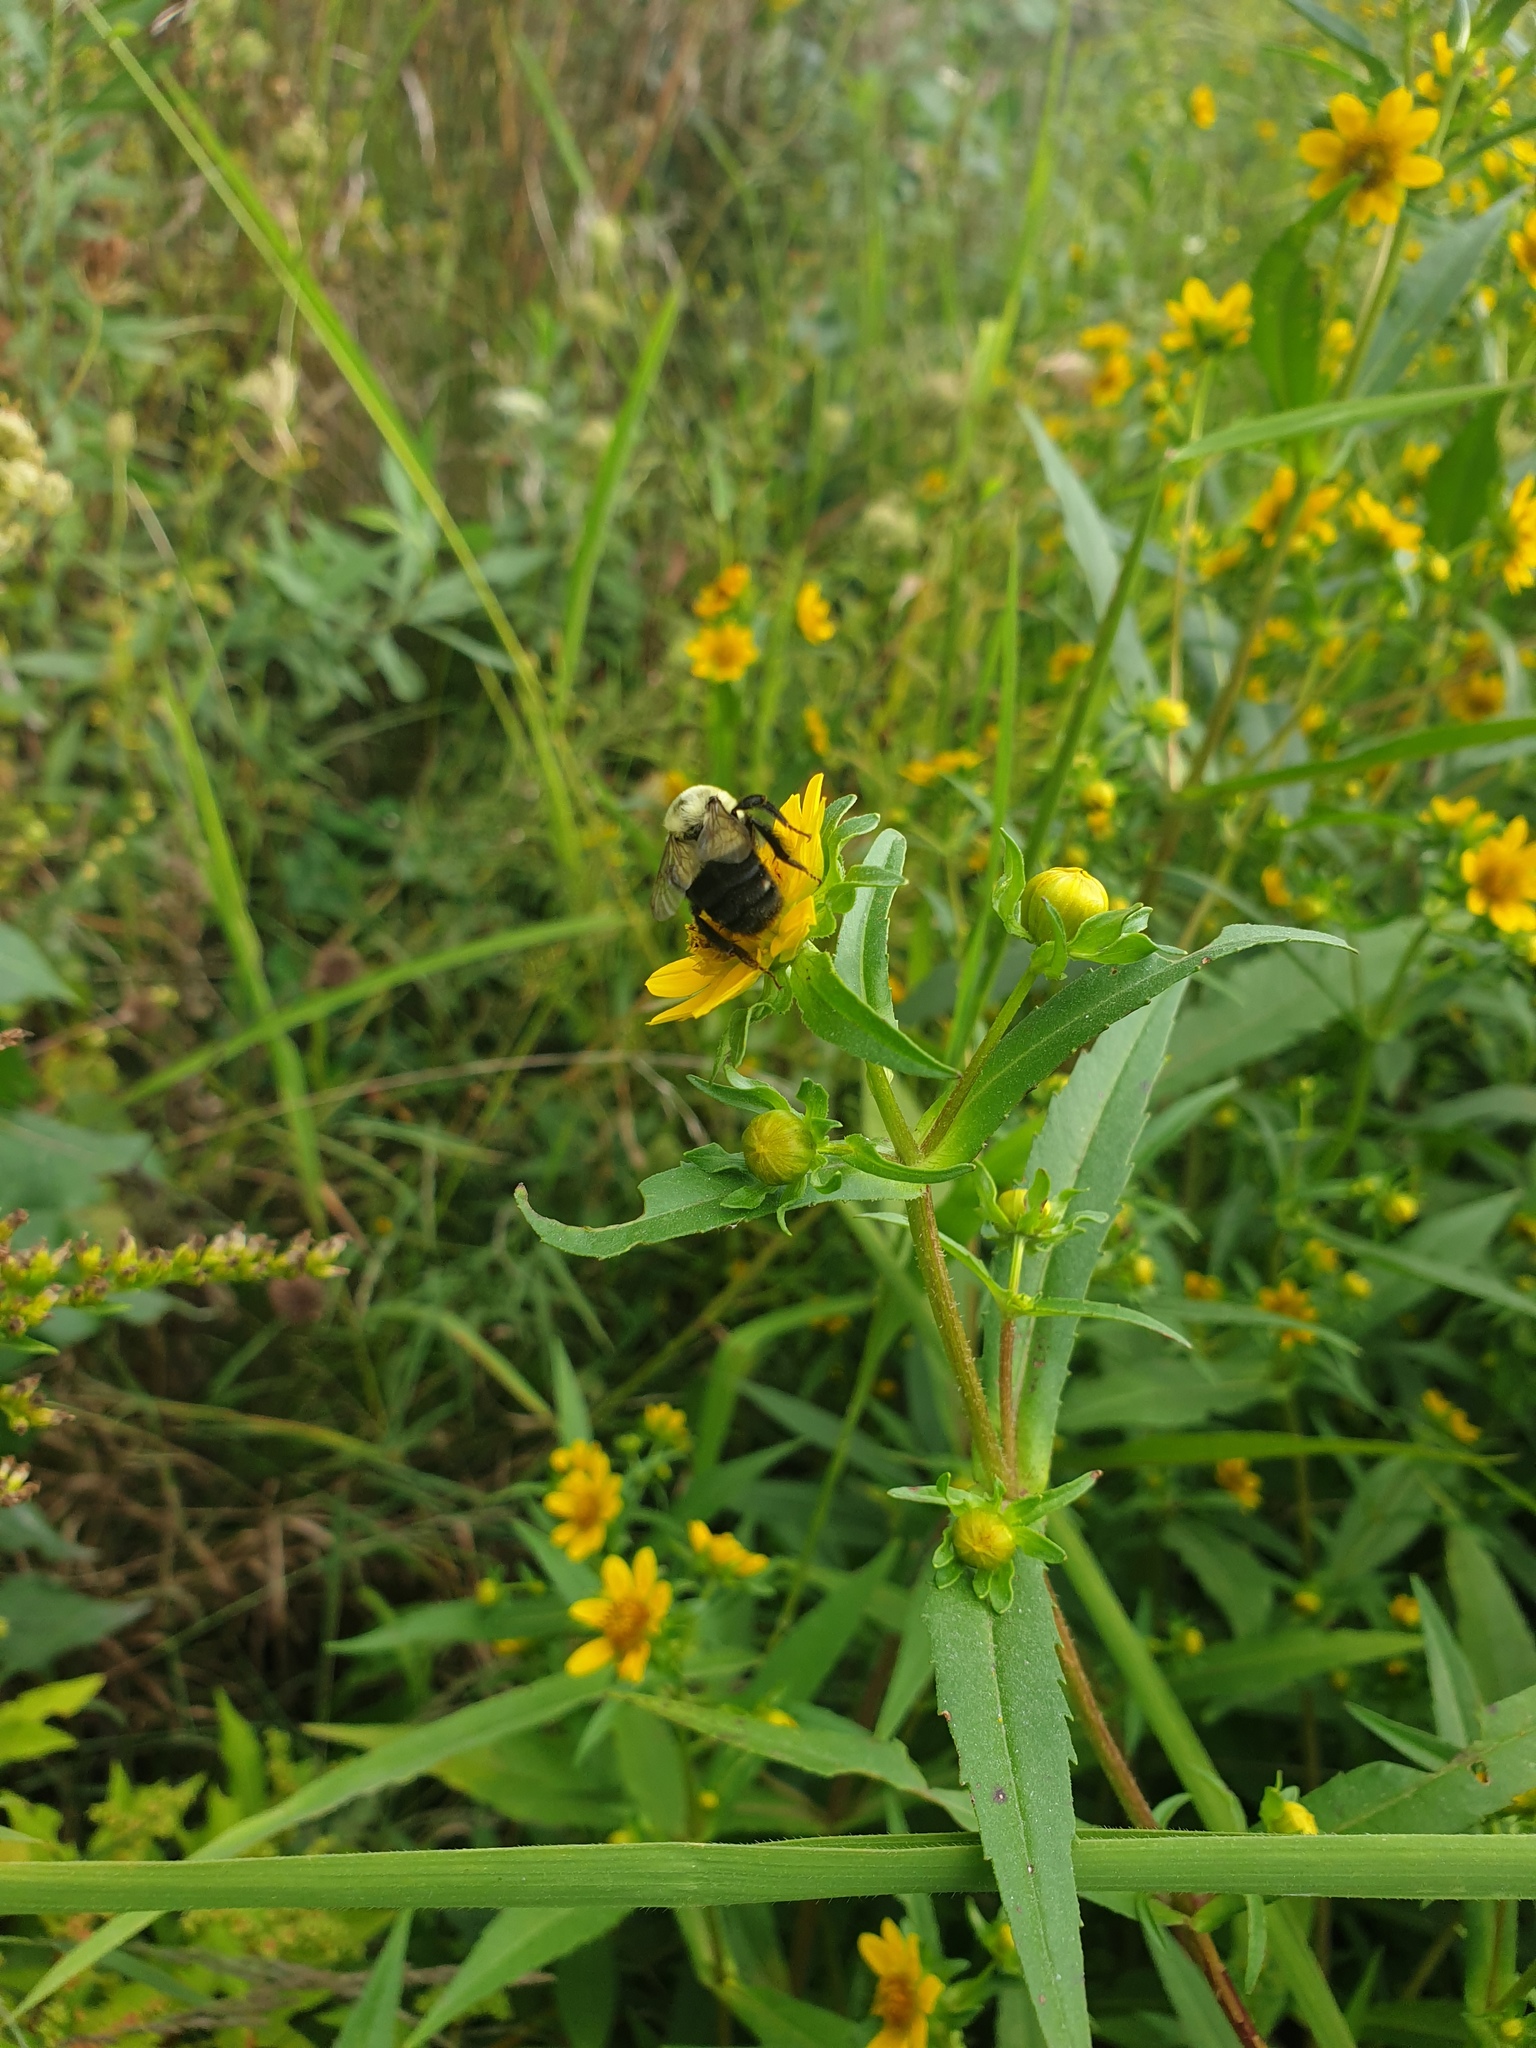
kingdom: Animalia
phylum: Arthropoda
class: Insecta
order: Hymenoptera
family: Apidae
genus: Bombus
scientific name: Bombus impatiens
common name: Common eastern bumble bee
